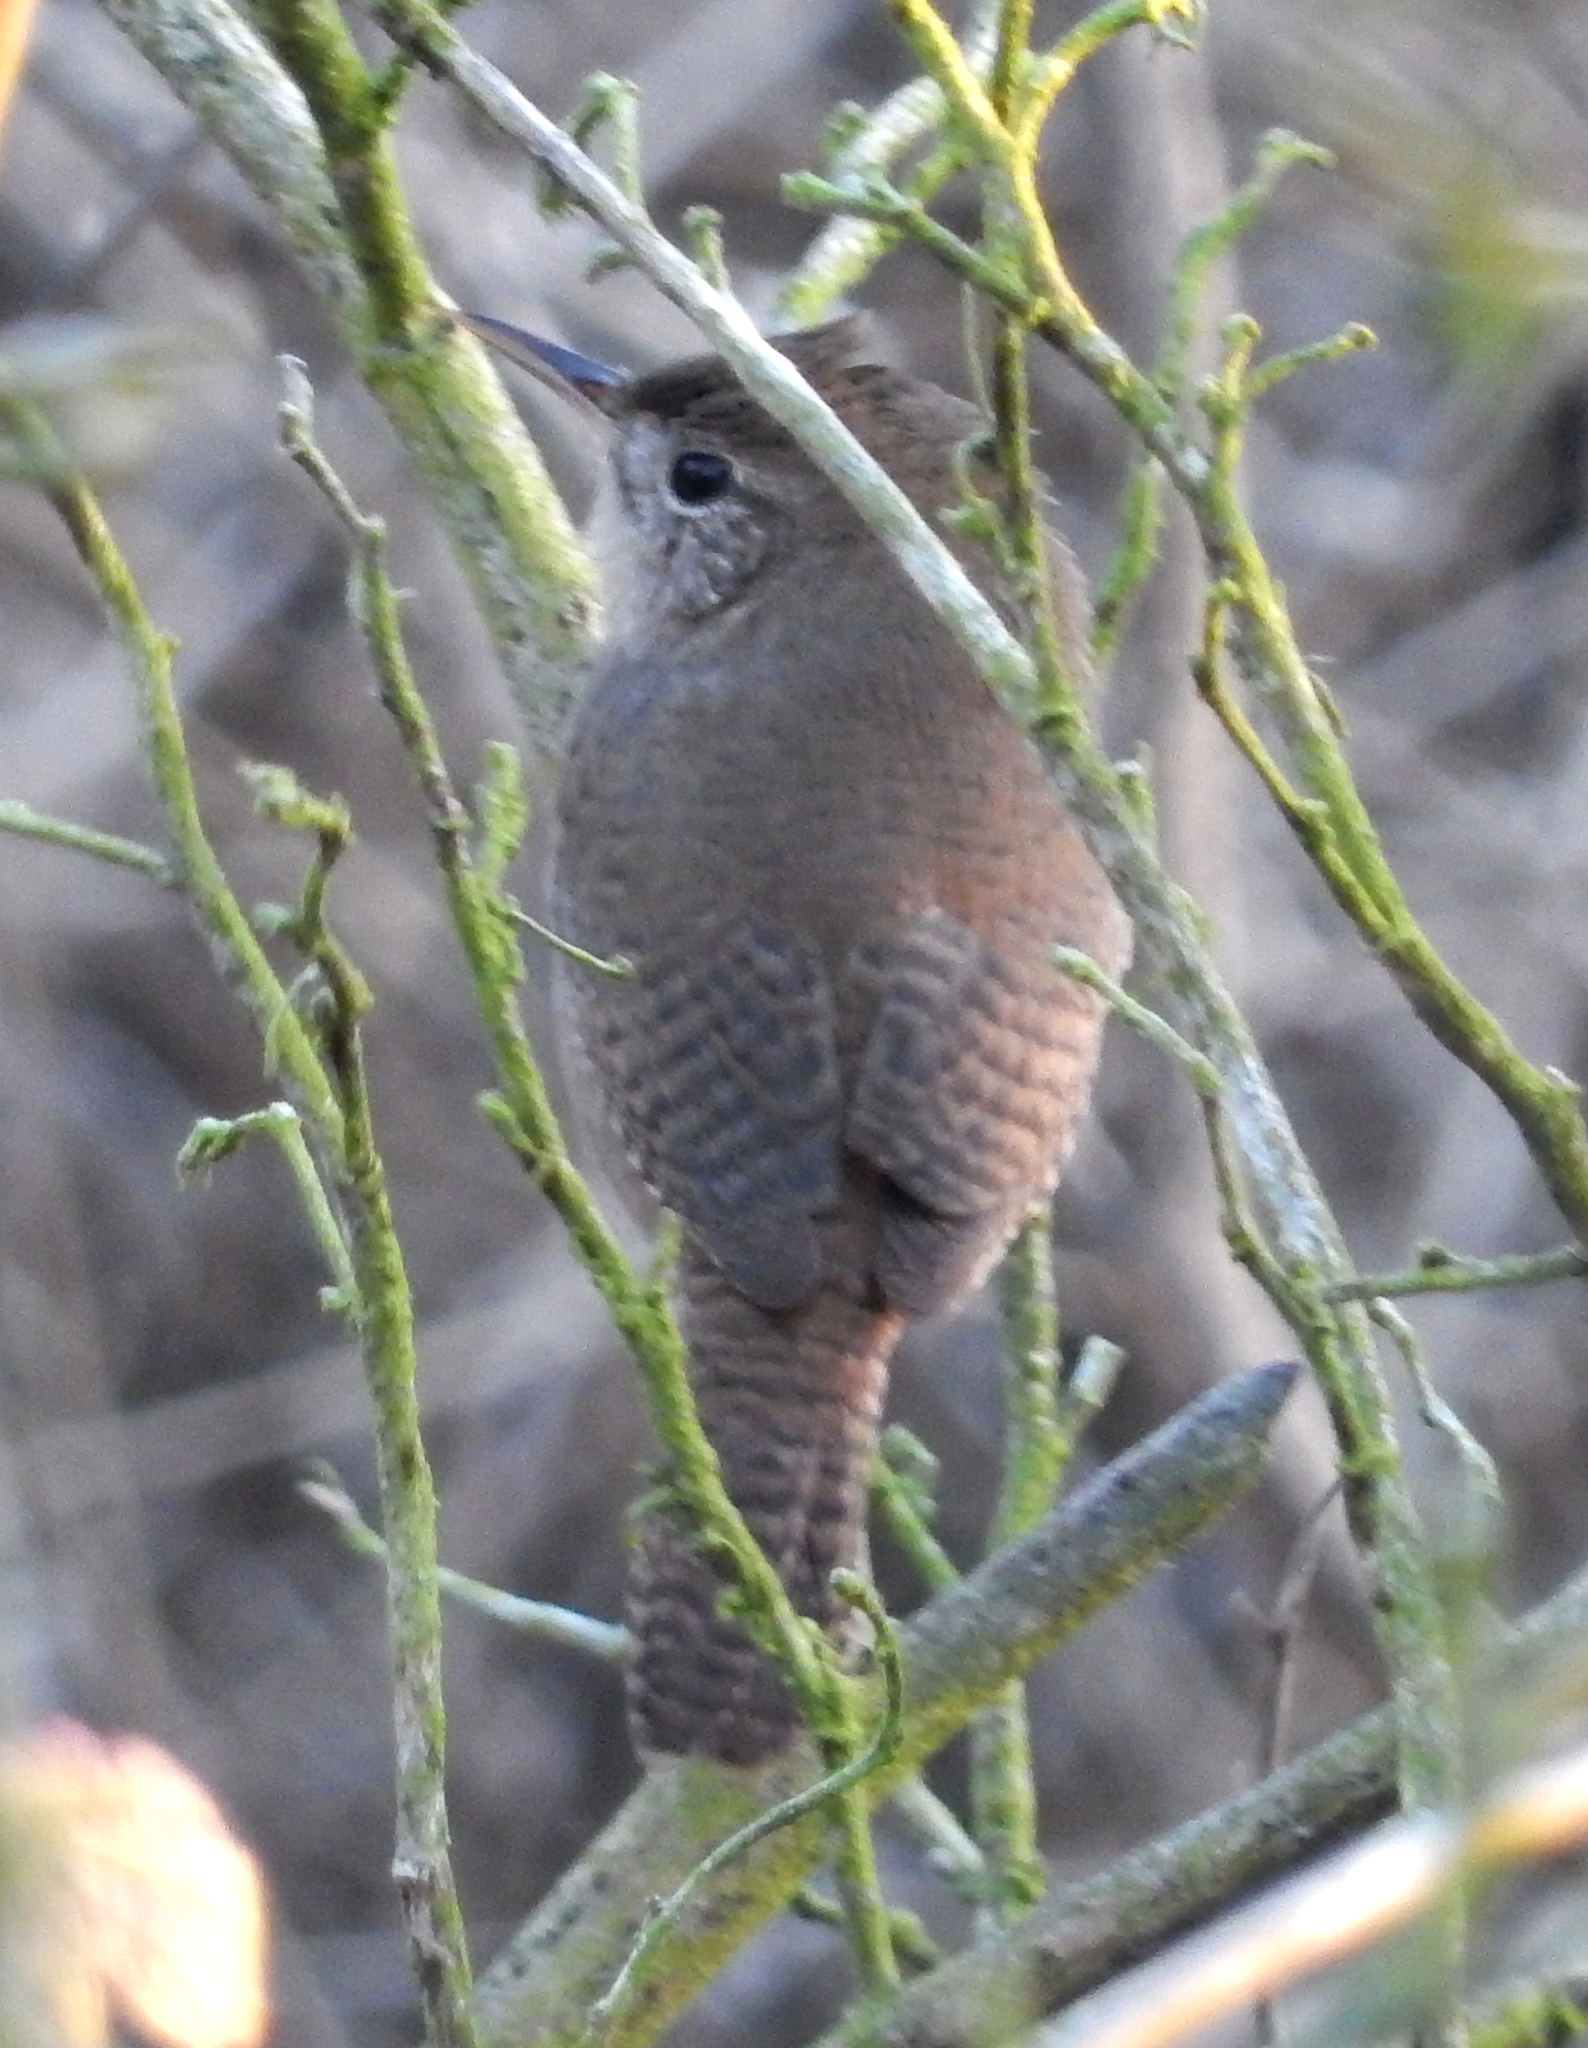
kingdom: Animalia
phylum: Chordata
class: Aves
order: Passeriformes
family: Troglodytidae
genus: Troglodytes
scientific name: Troglodytes aedon
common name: House wren
